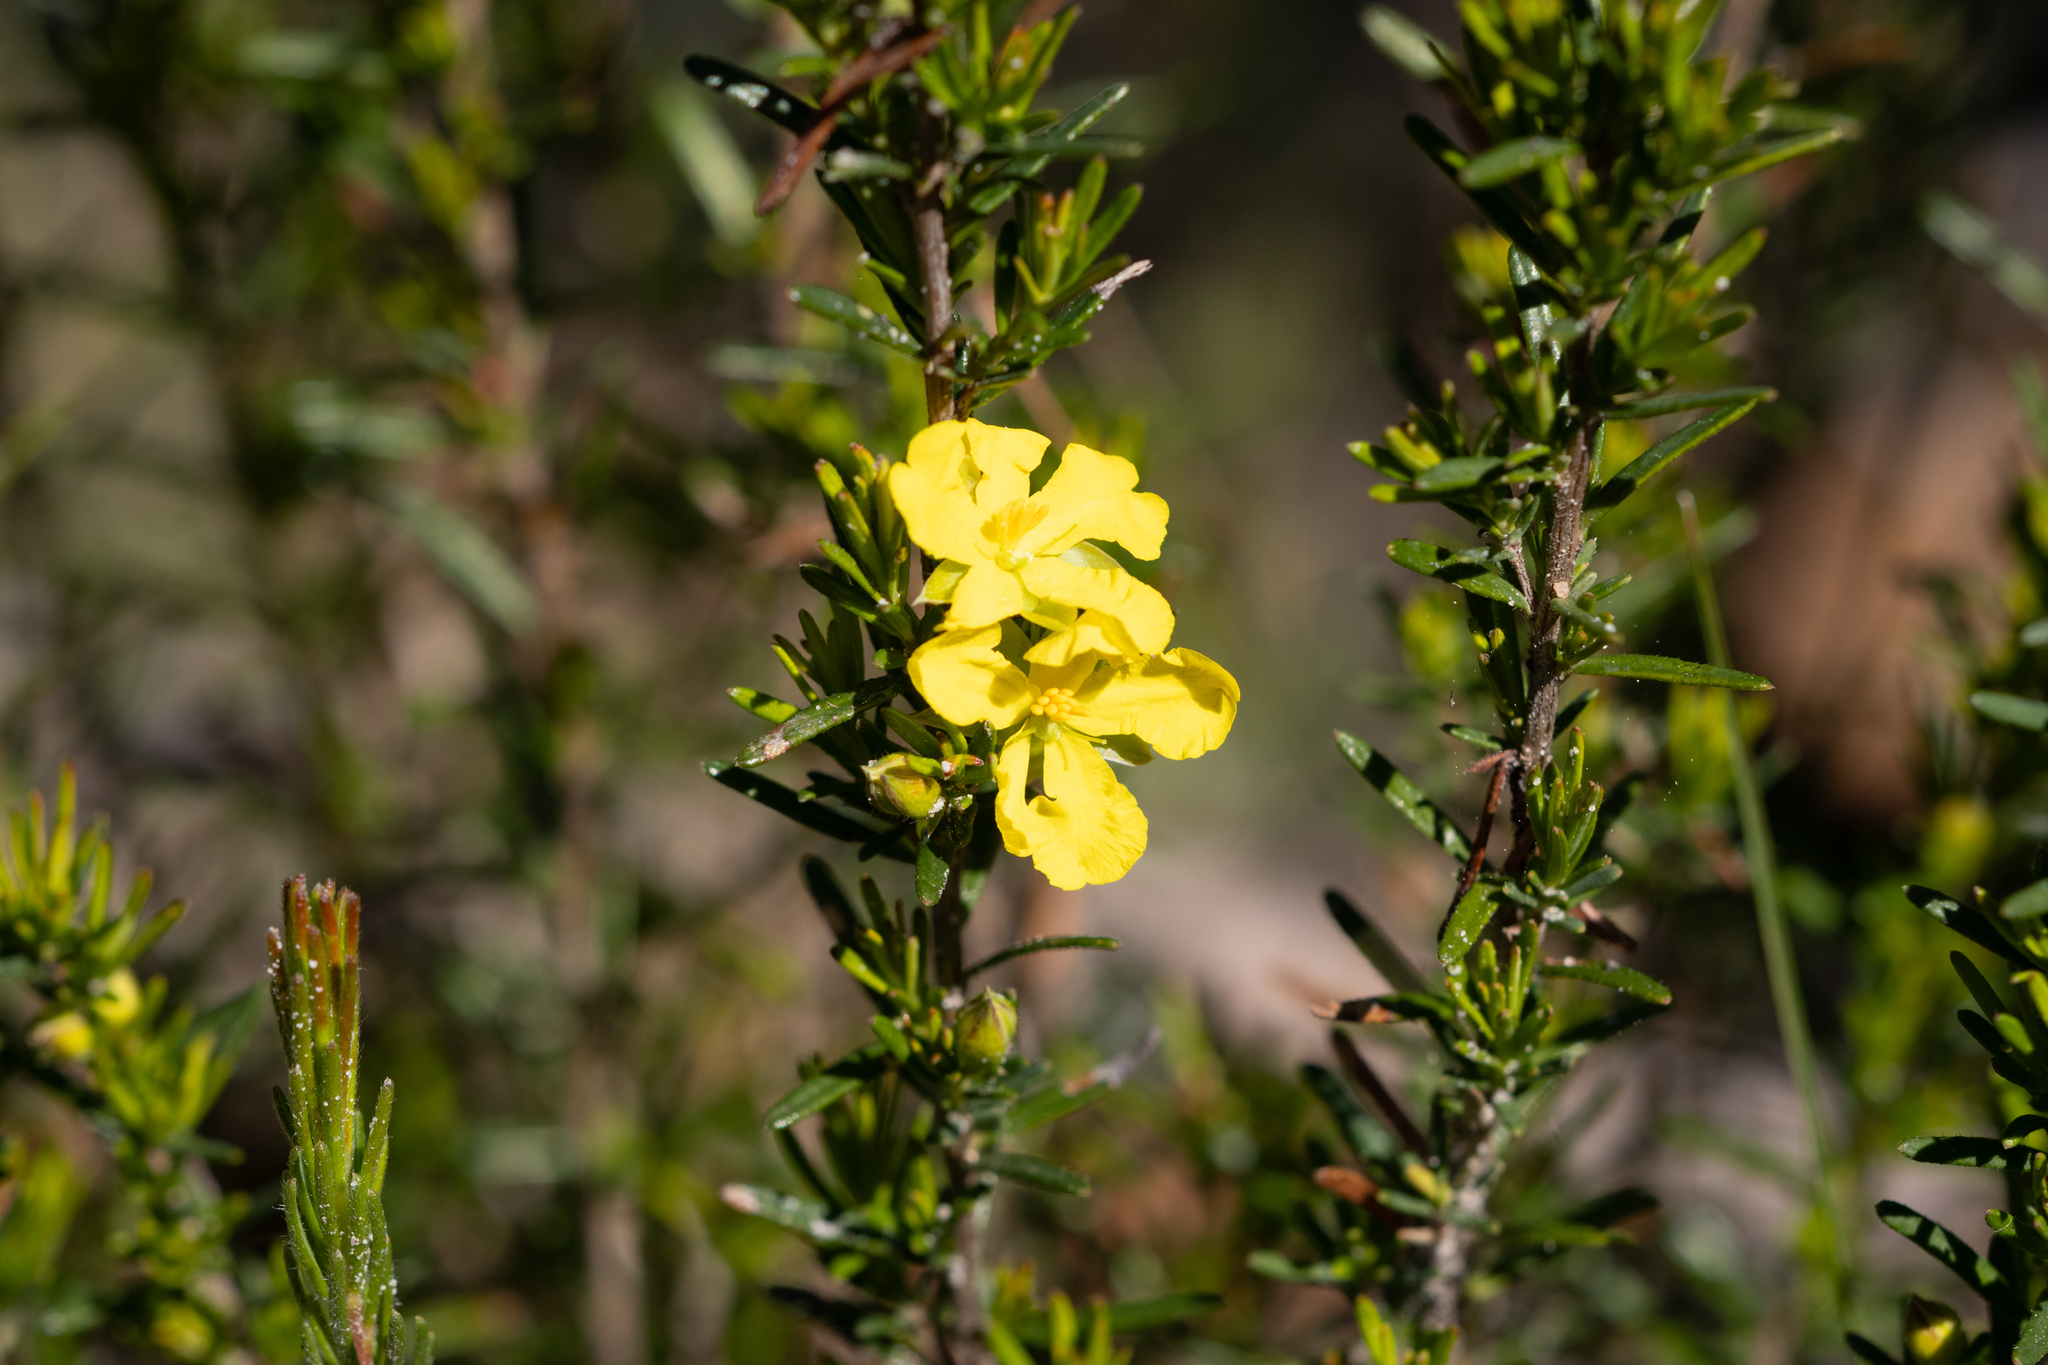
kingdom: Plantae
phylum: Tracheophyta
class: Magnoliopsida
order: Dilleniales
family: Dilleniaceae
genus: Hibbertia
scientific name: Hibbertia riparia
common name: Erect guinea-flower
